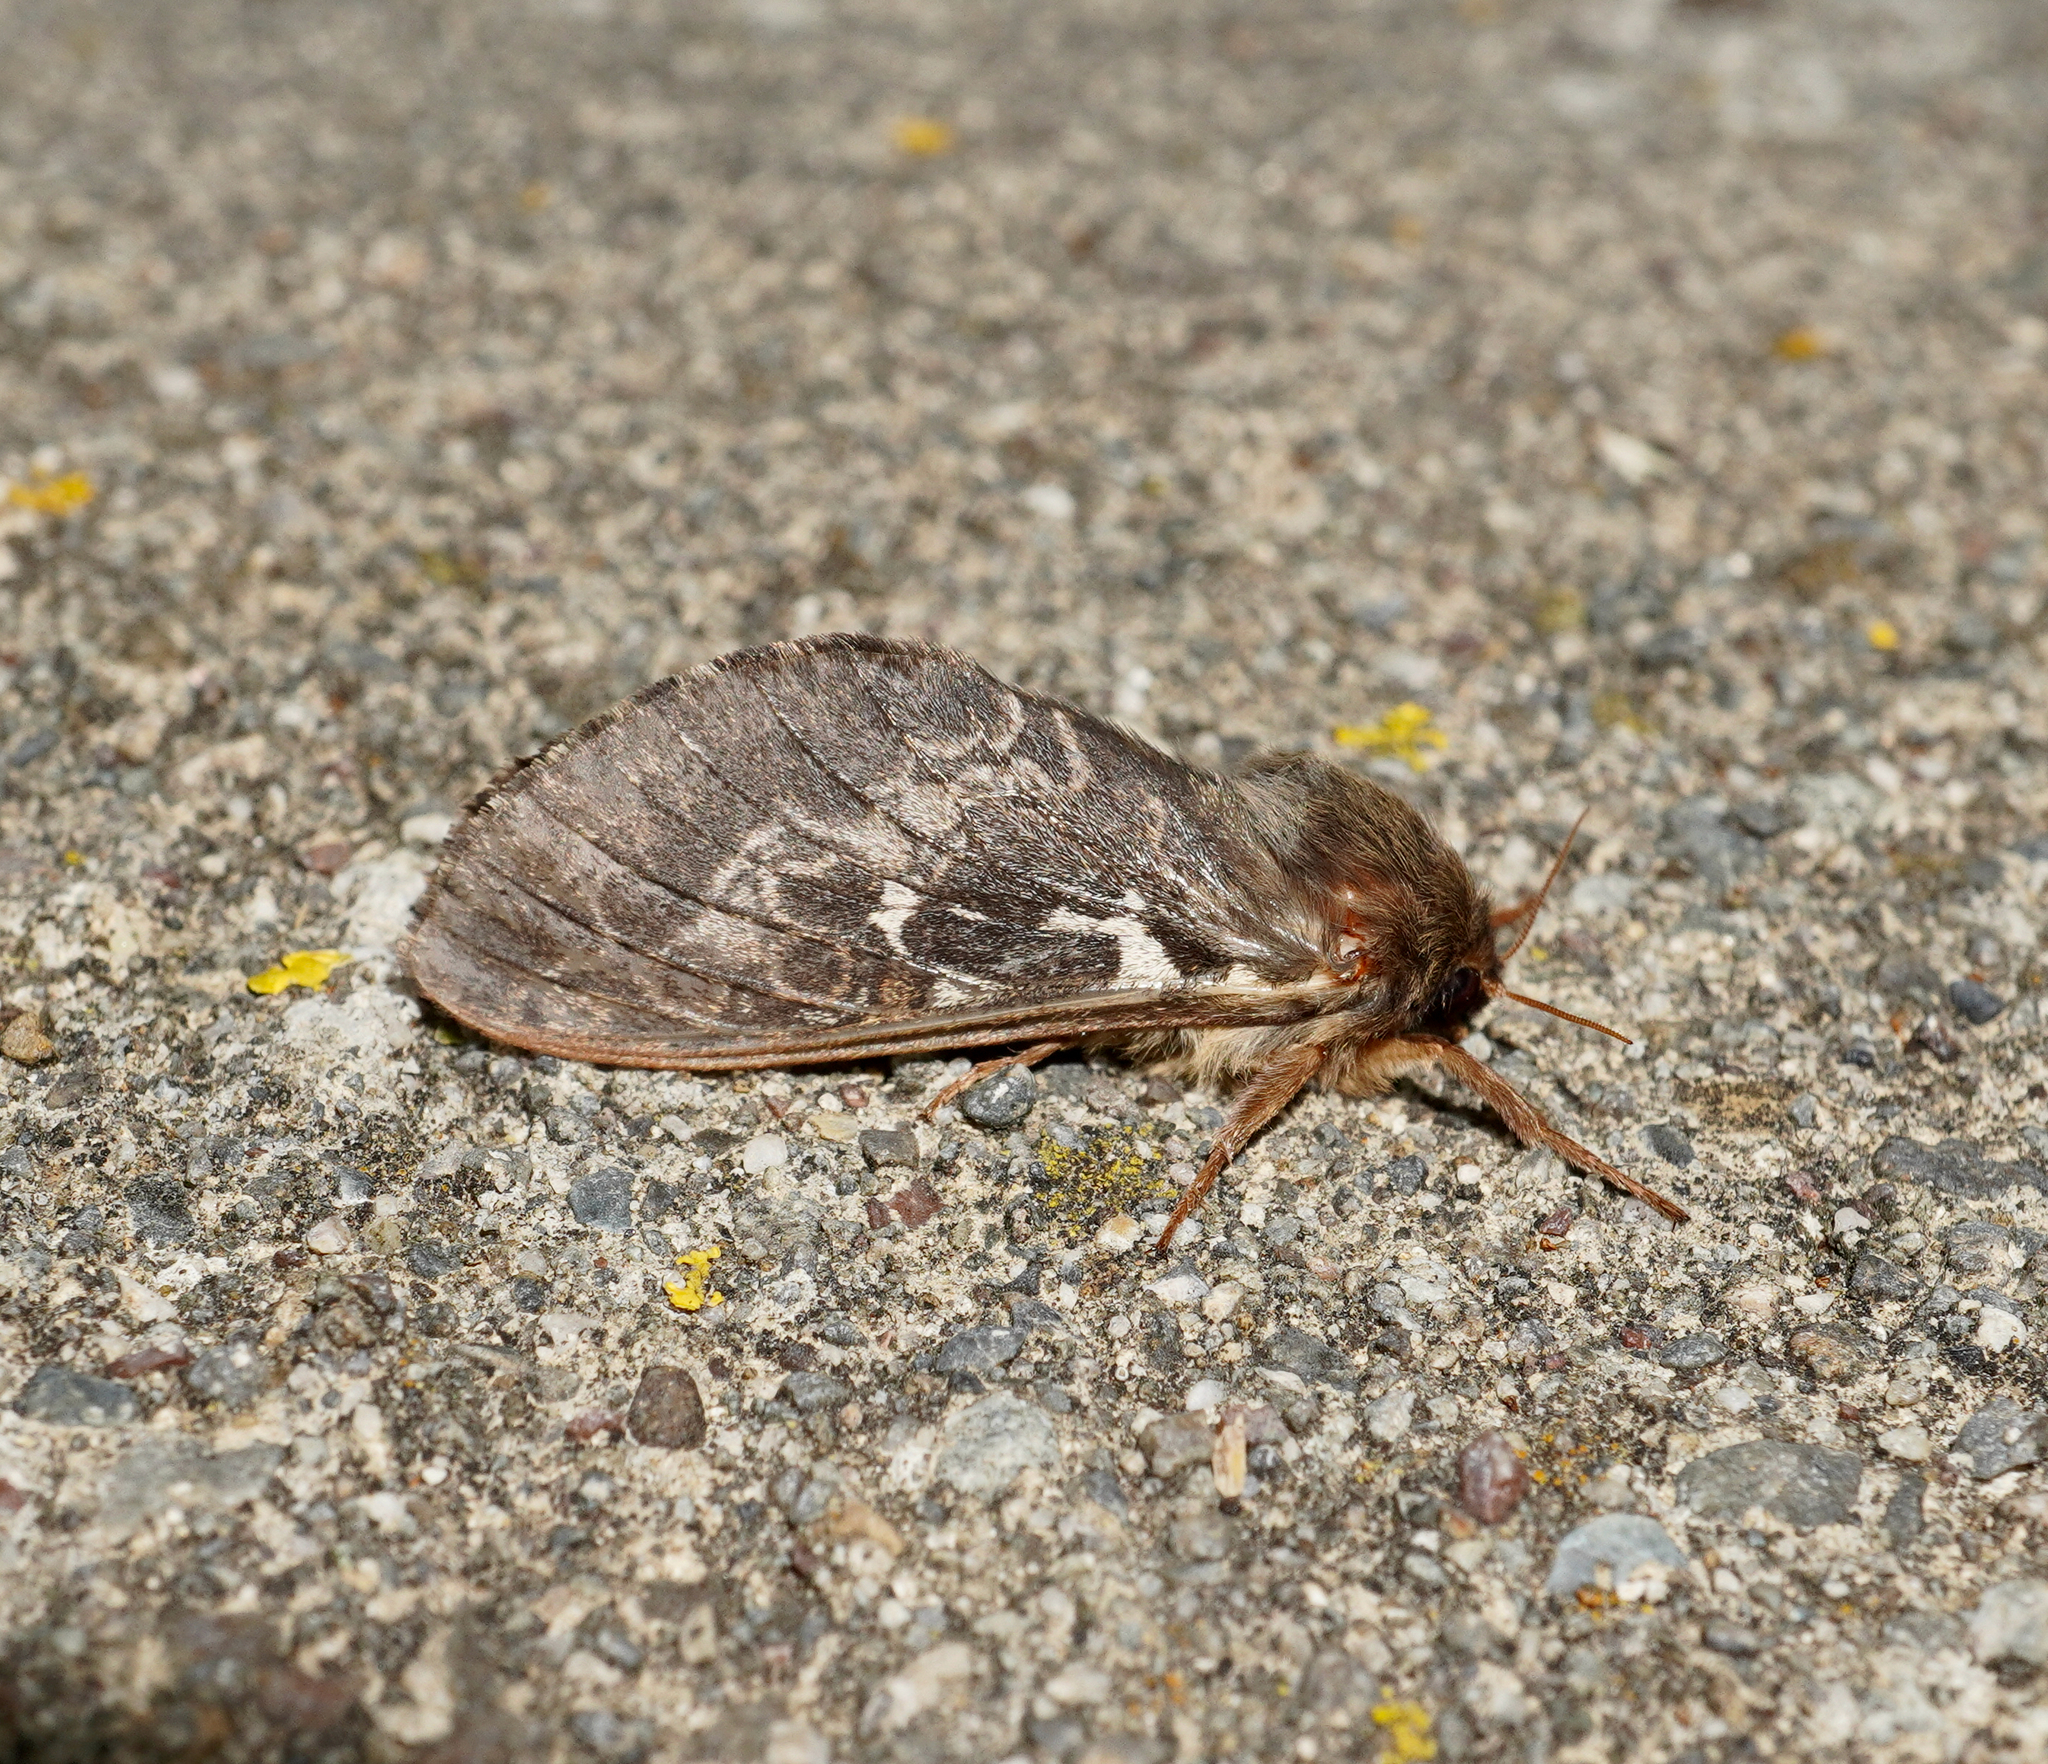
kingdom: Animalia
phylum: Arthropoda
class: Insecta
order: Lepidoptera
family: Hepialidae
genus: Wiseana
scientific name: Wiseana cervinata
